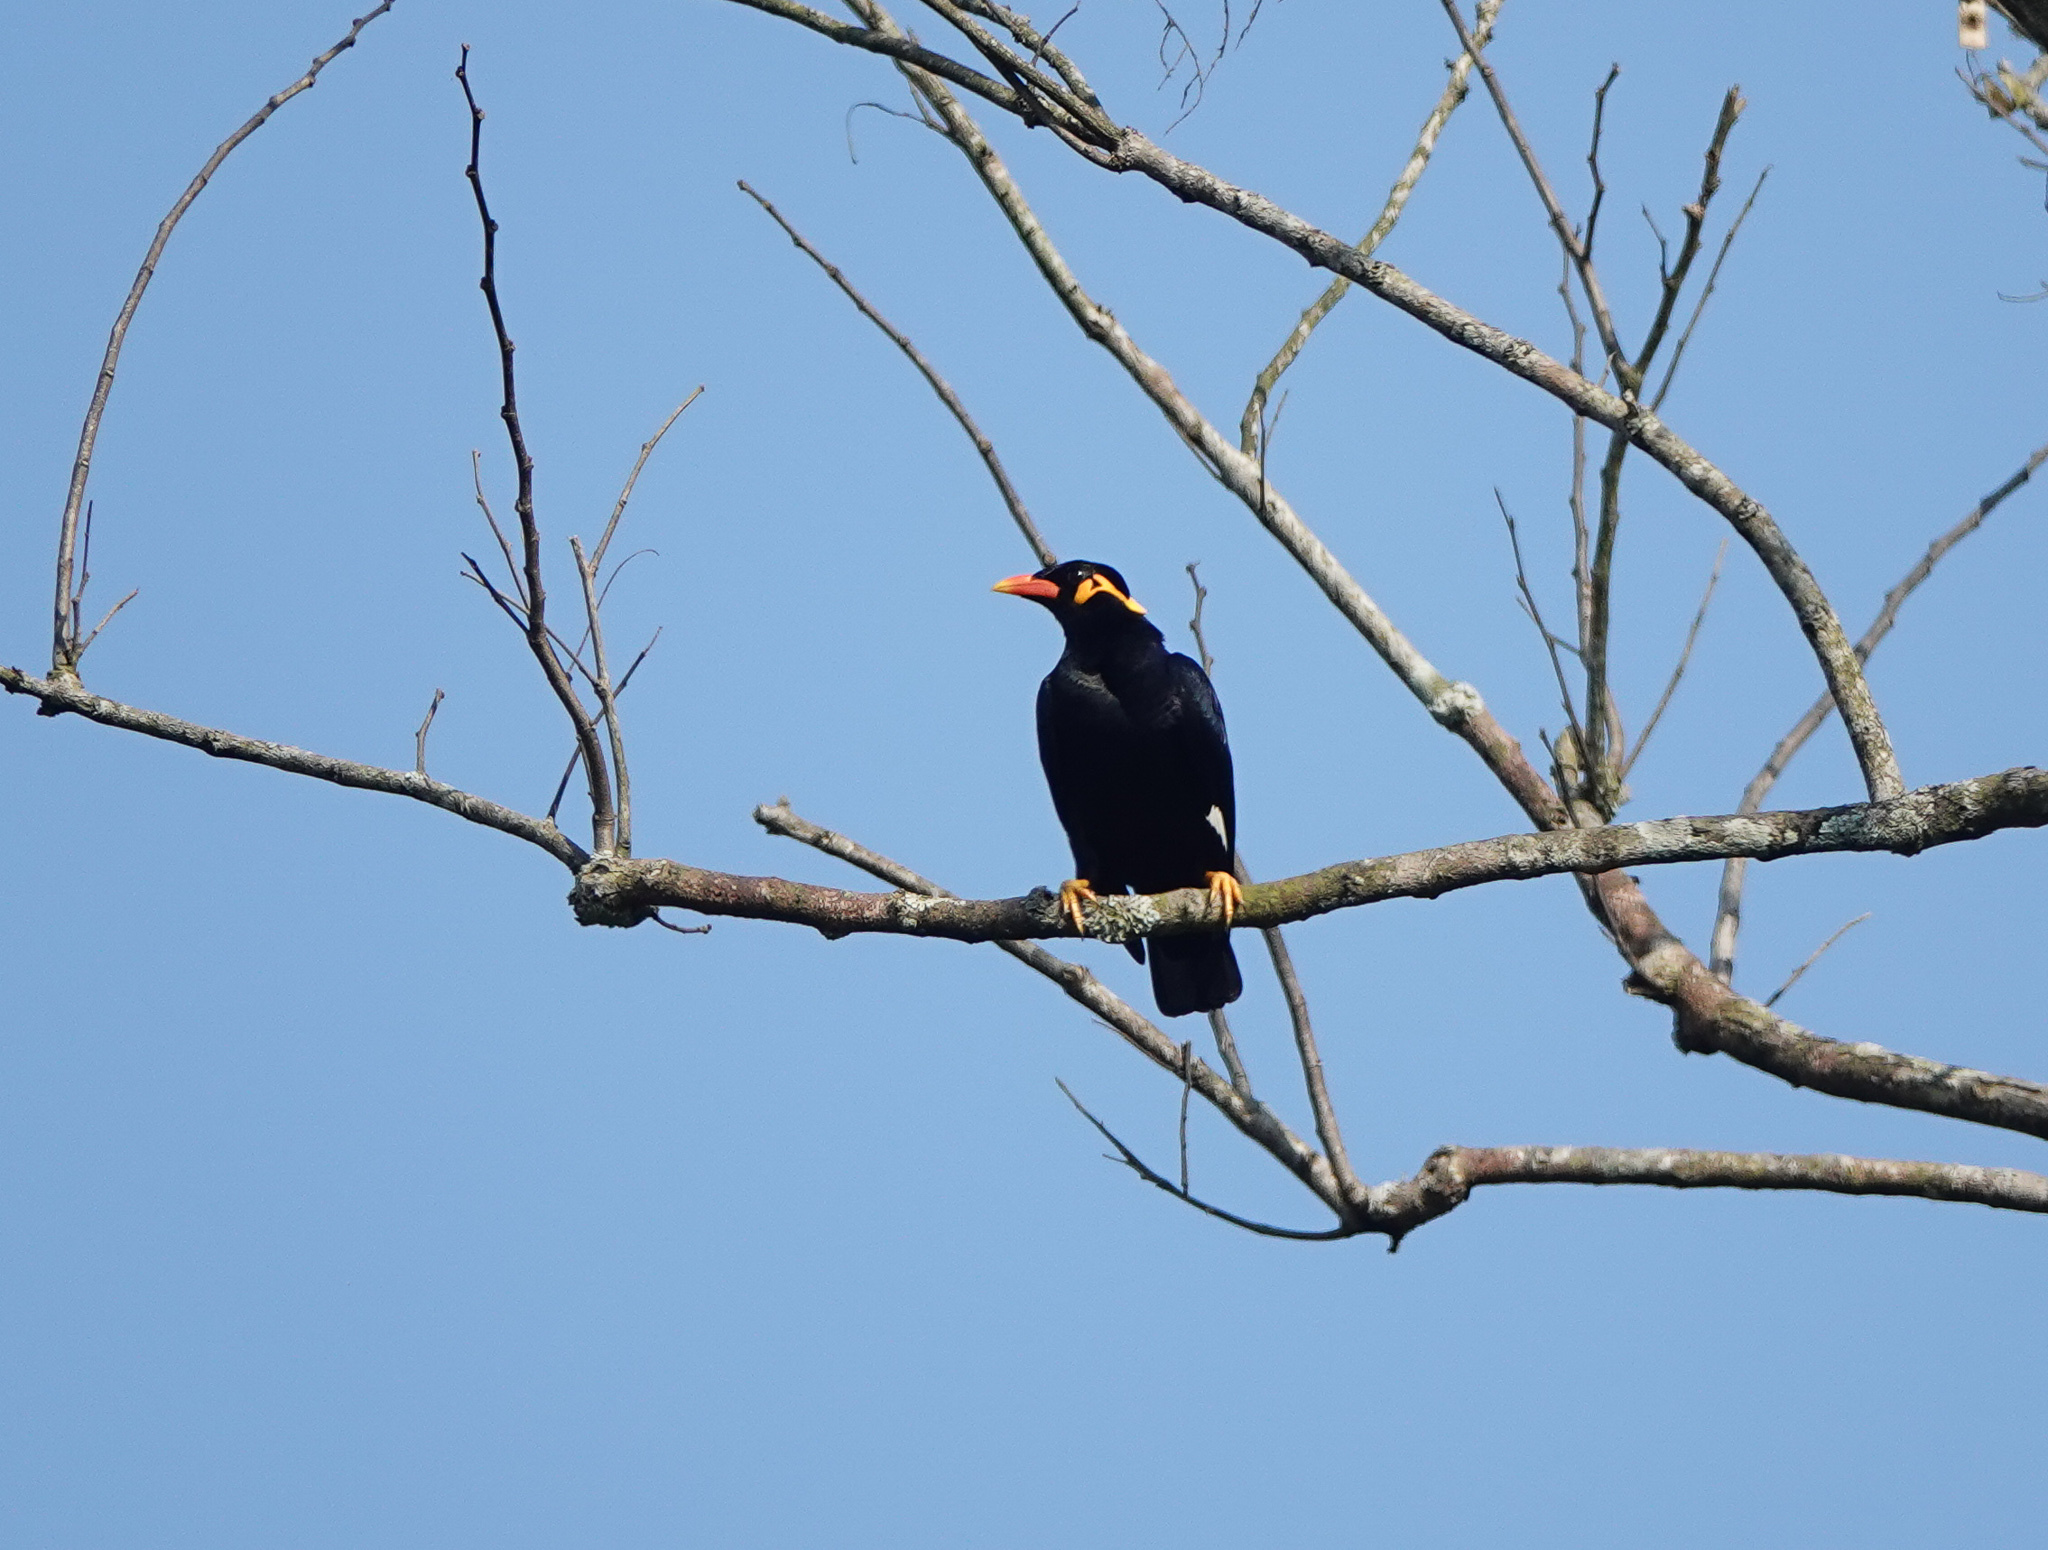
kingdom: Animalia
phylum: Chordata
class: Aves
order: Passeriformes
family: Sturnidae
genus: Gracula
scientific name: Gracula religiosa
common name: Common hill myna
